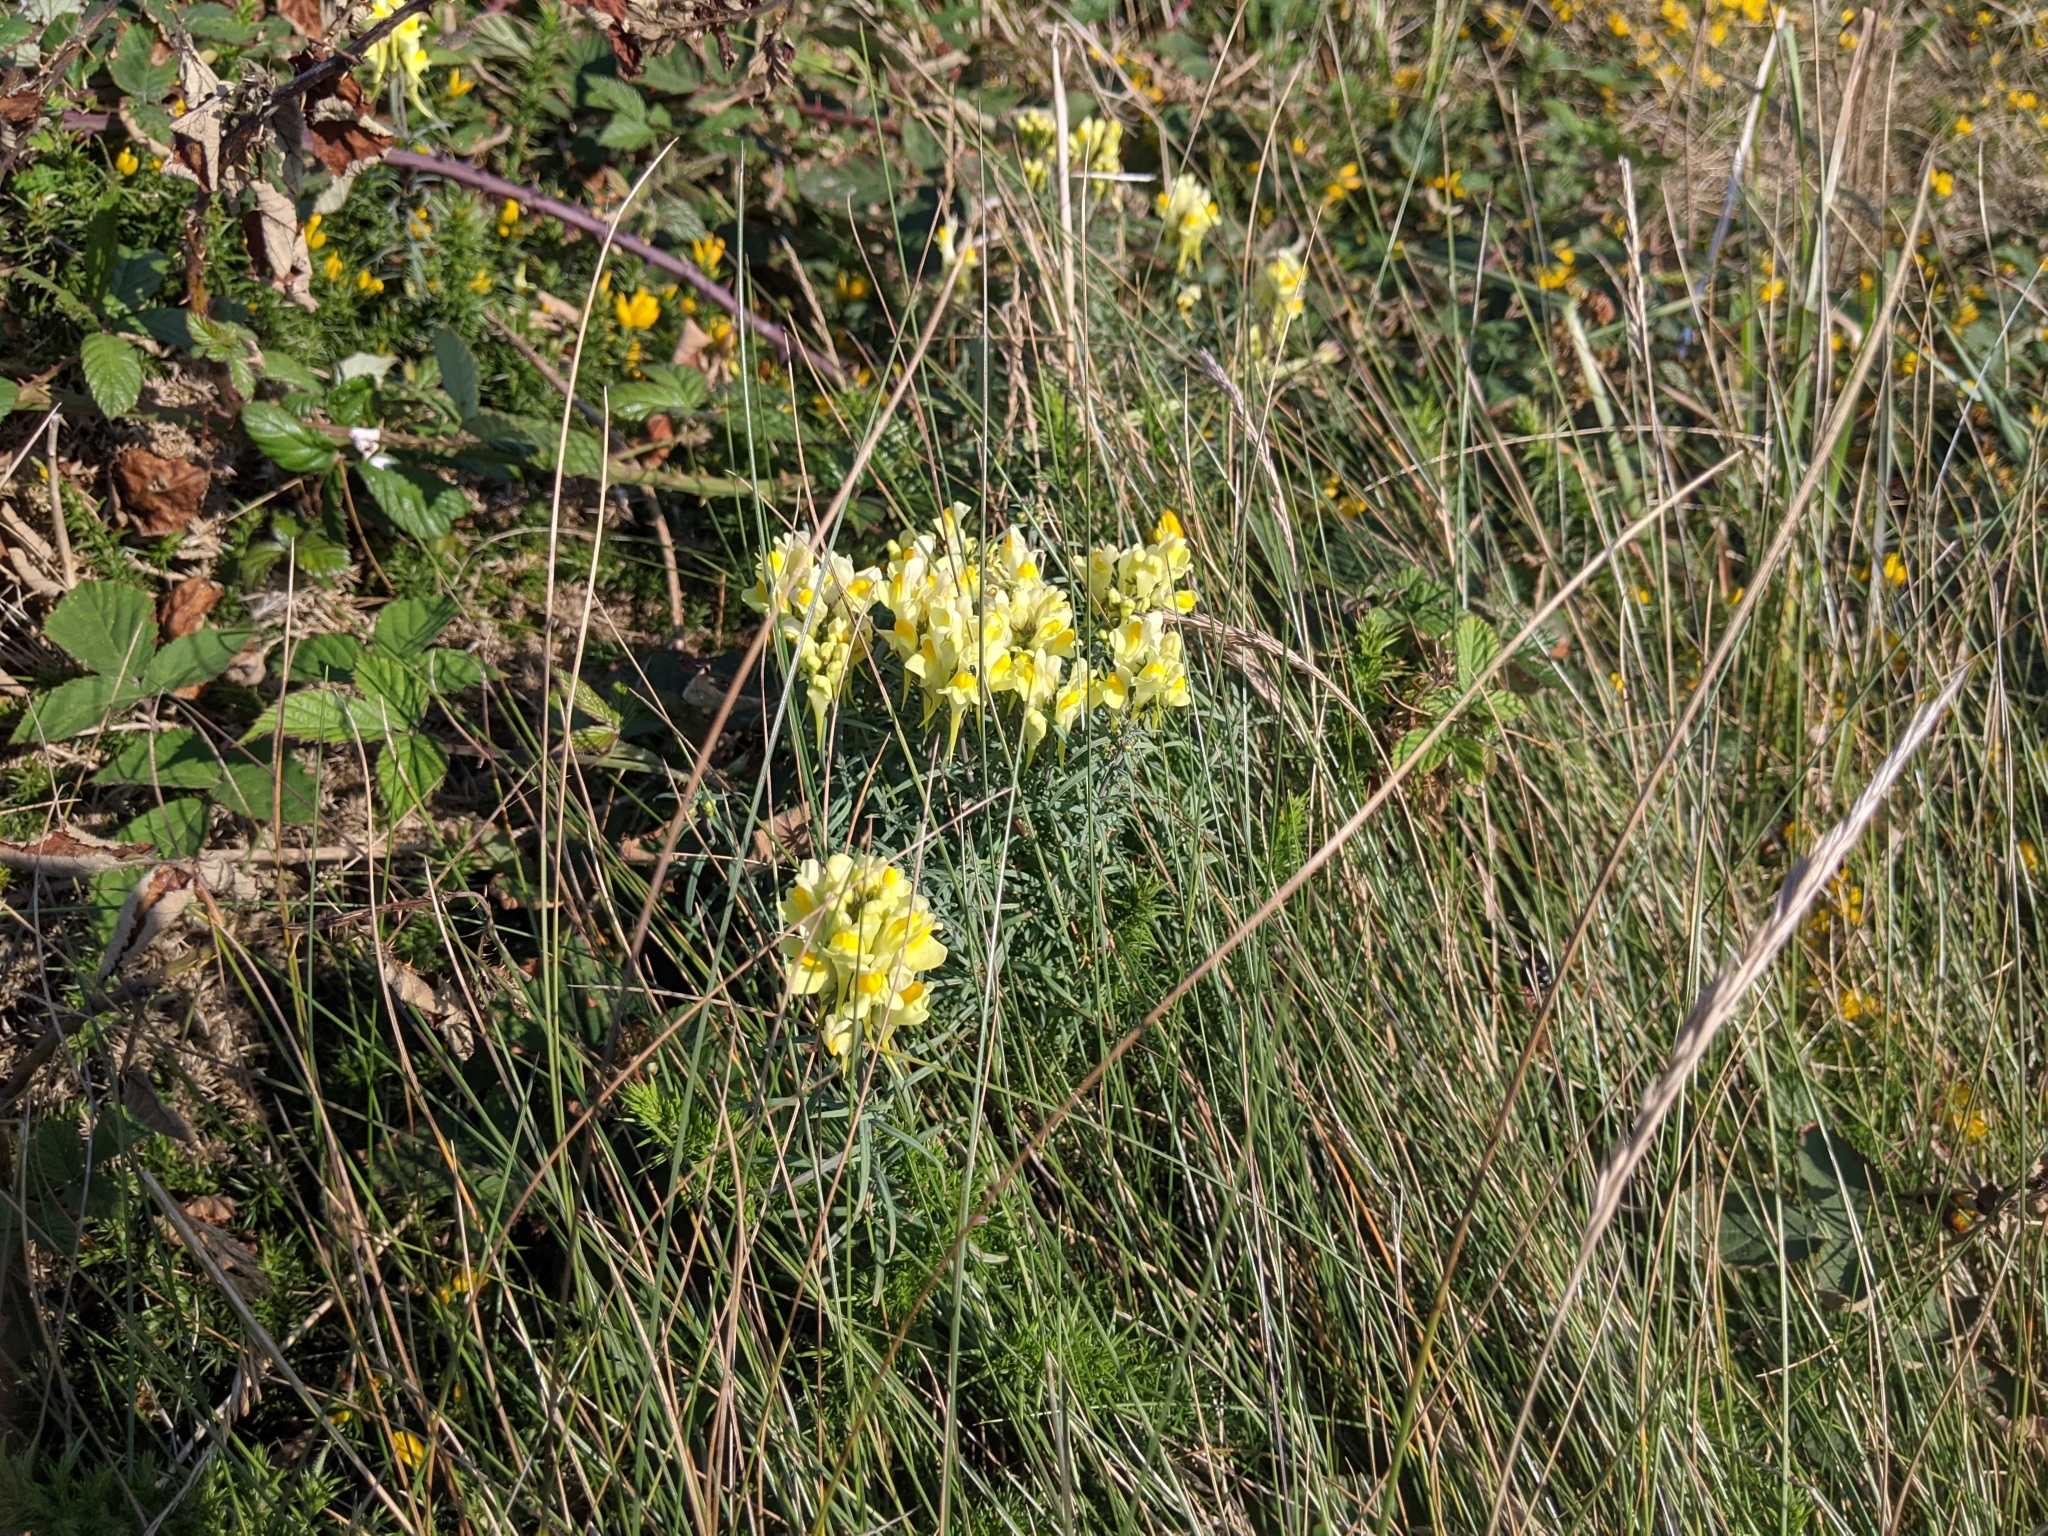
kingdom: Plantae
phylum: Tracheophyta
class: Magnoliopsida
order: Lamiales
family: Plantaginaceae
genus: Linaria
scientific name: Linaria vulgaris
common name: Butter and eggs
